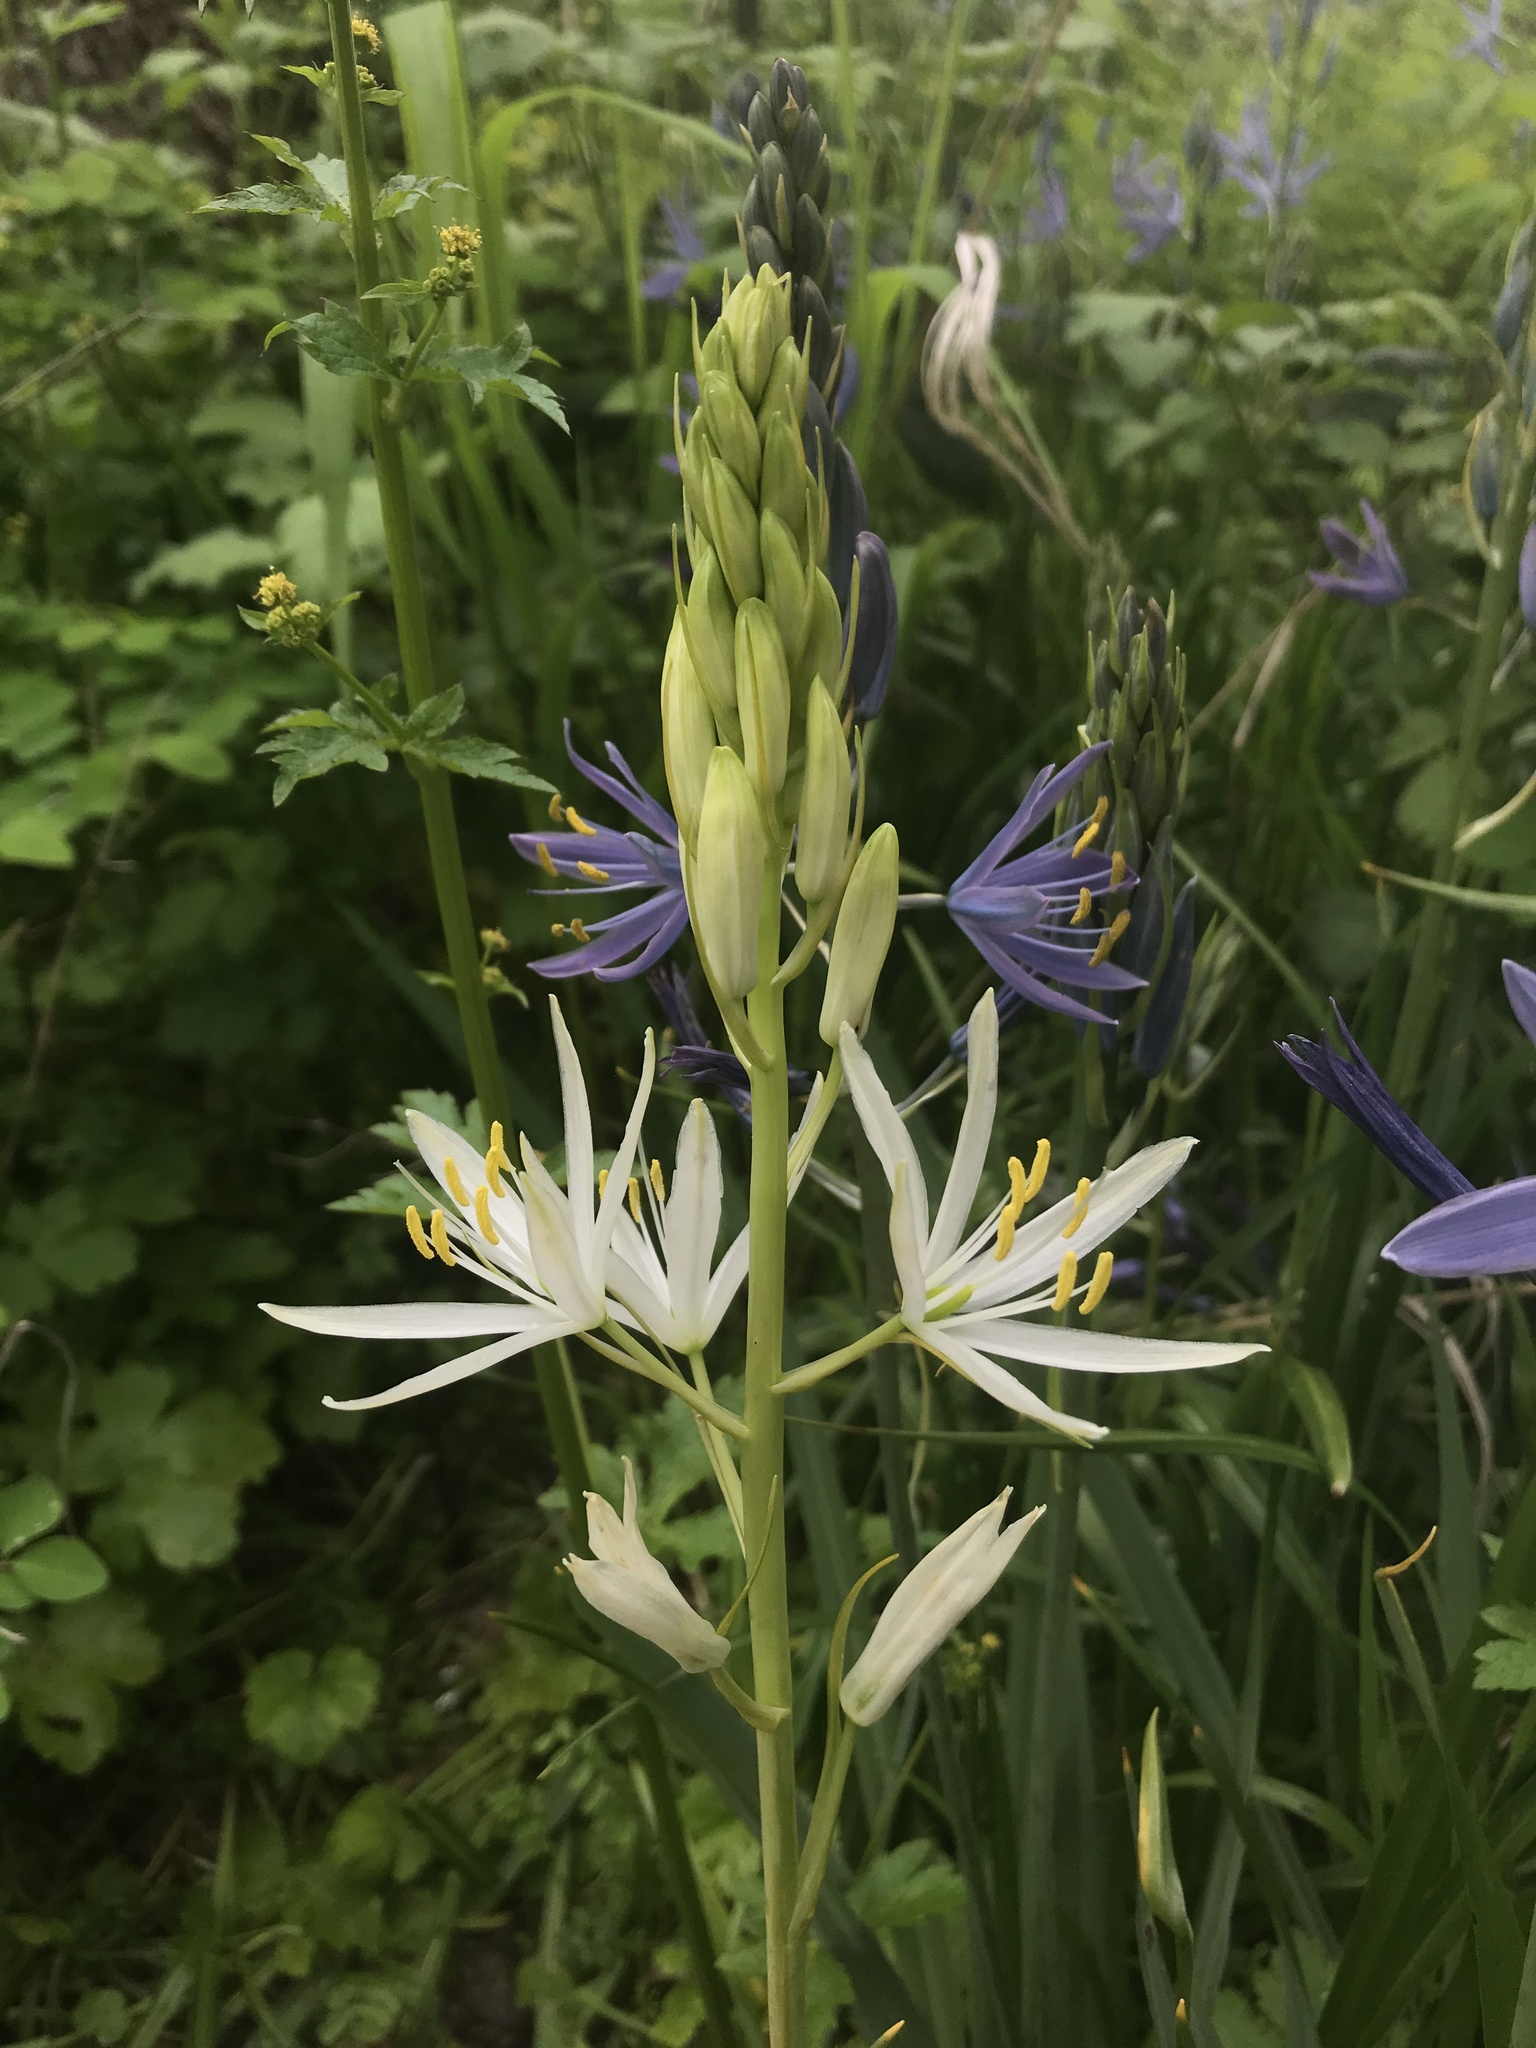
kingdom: Plantae
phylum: Tracheophyta
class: Liliopsida
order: Asparagales
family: Asparagaceae
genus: Camassia
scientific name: Camassia leichtlinii
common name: Leichtlin's camas
